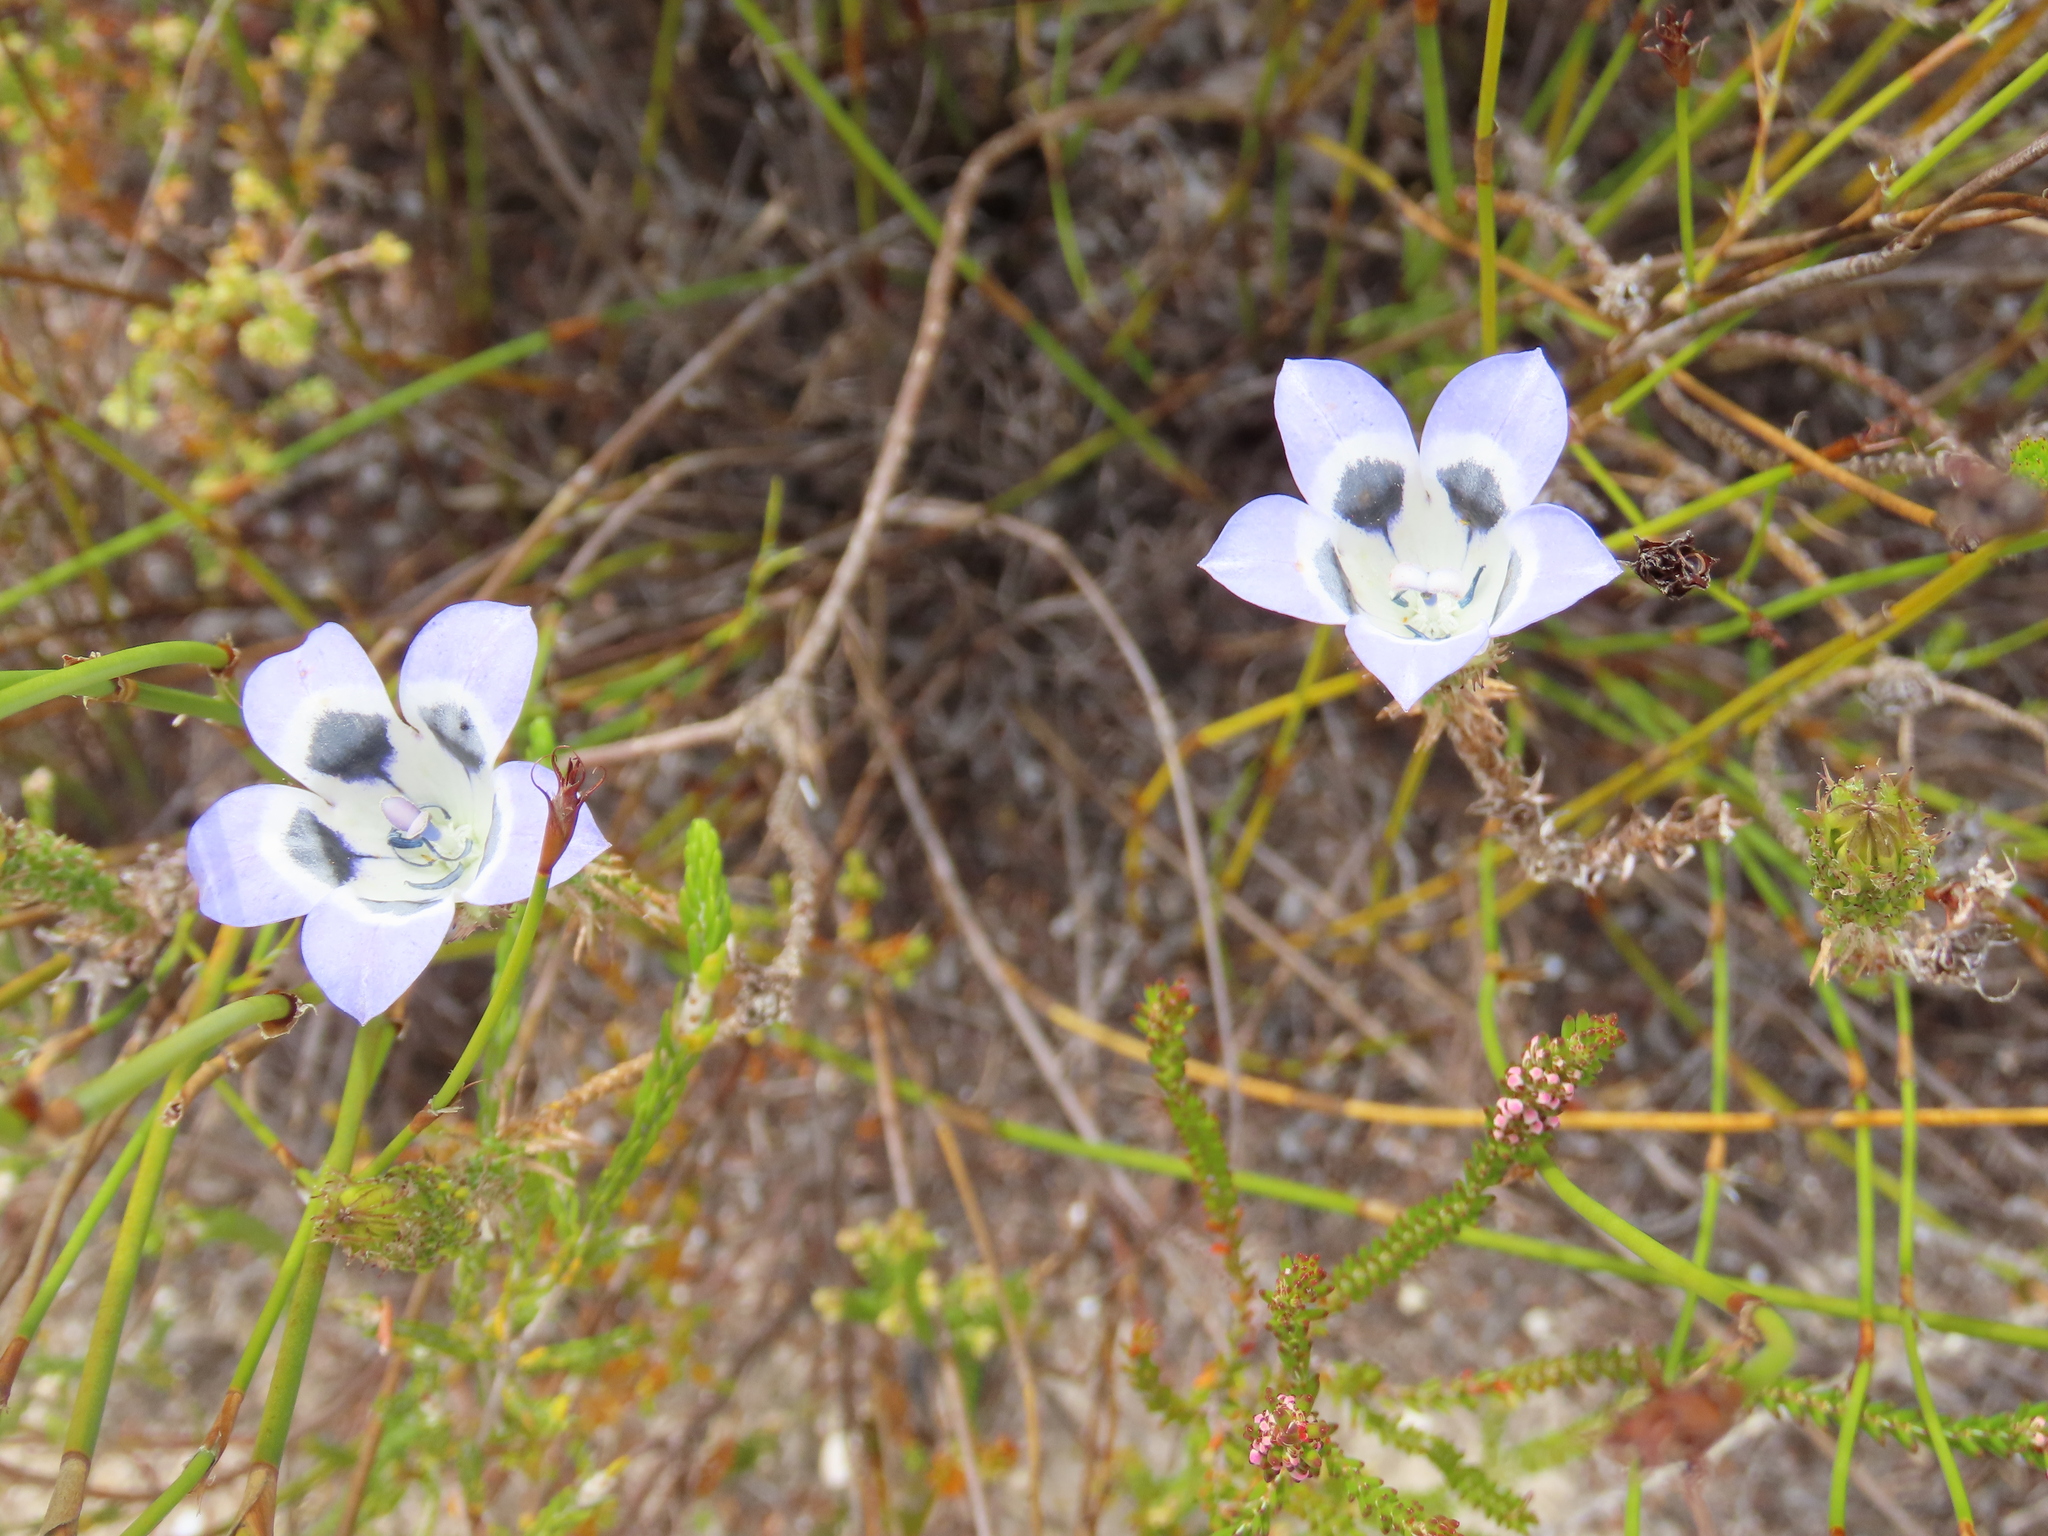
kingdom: Plantae
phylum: Tracheophyta
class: Magnoliopsida
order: Asterales
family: Campanulaceae
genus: Roella
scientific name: Roella ciliata
